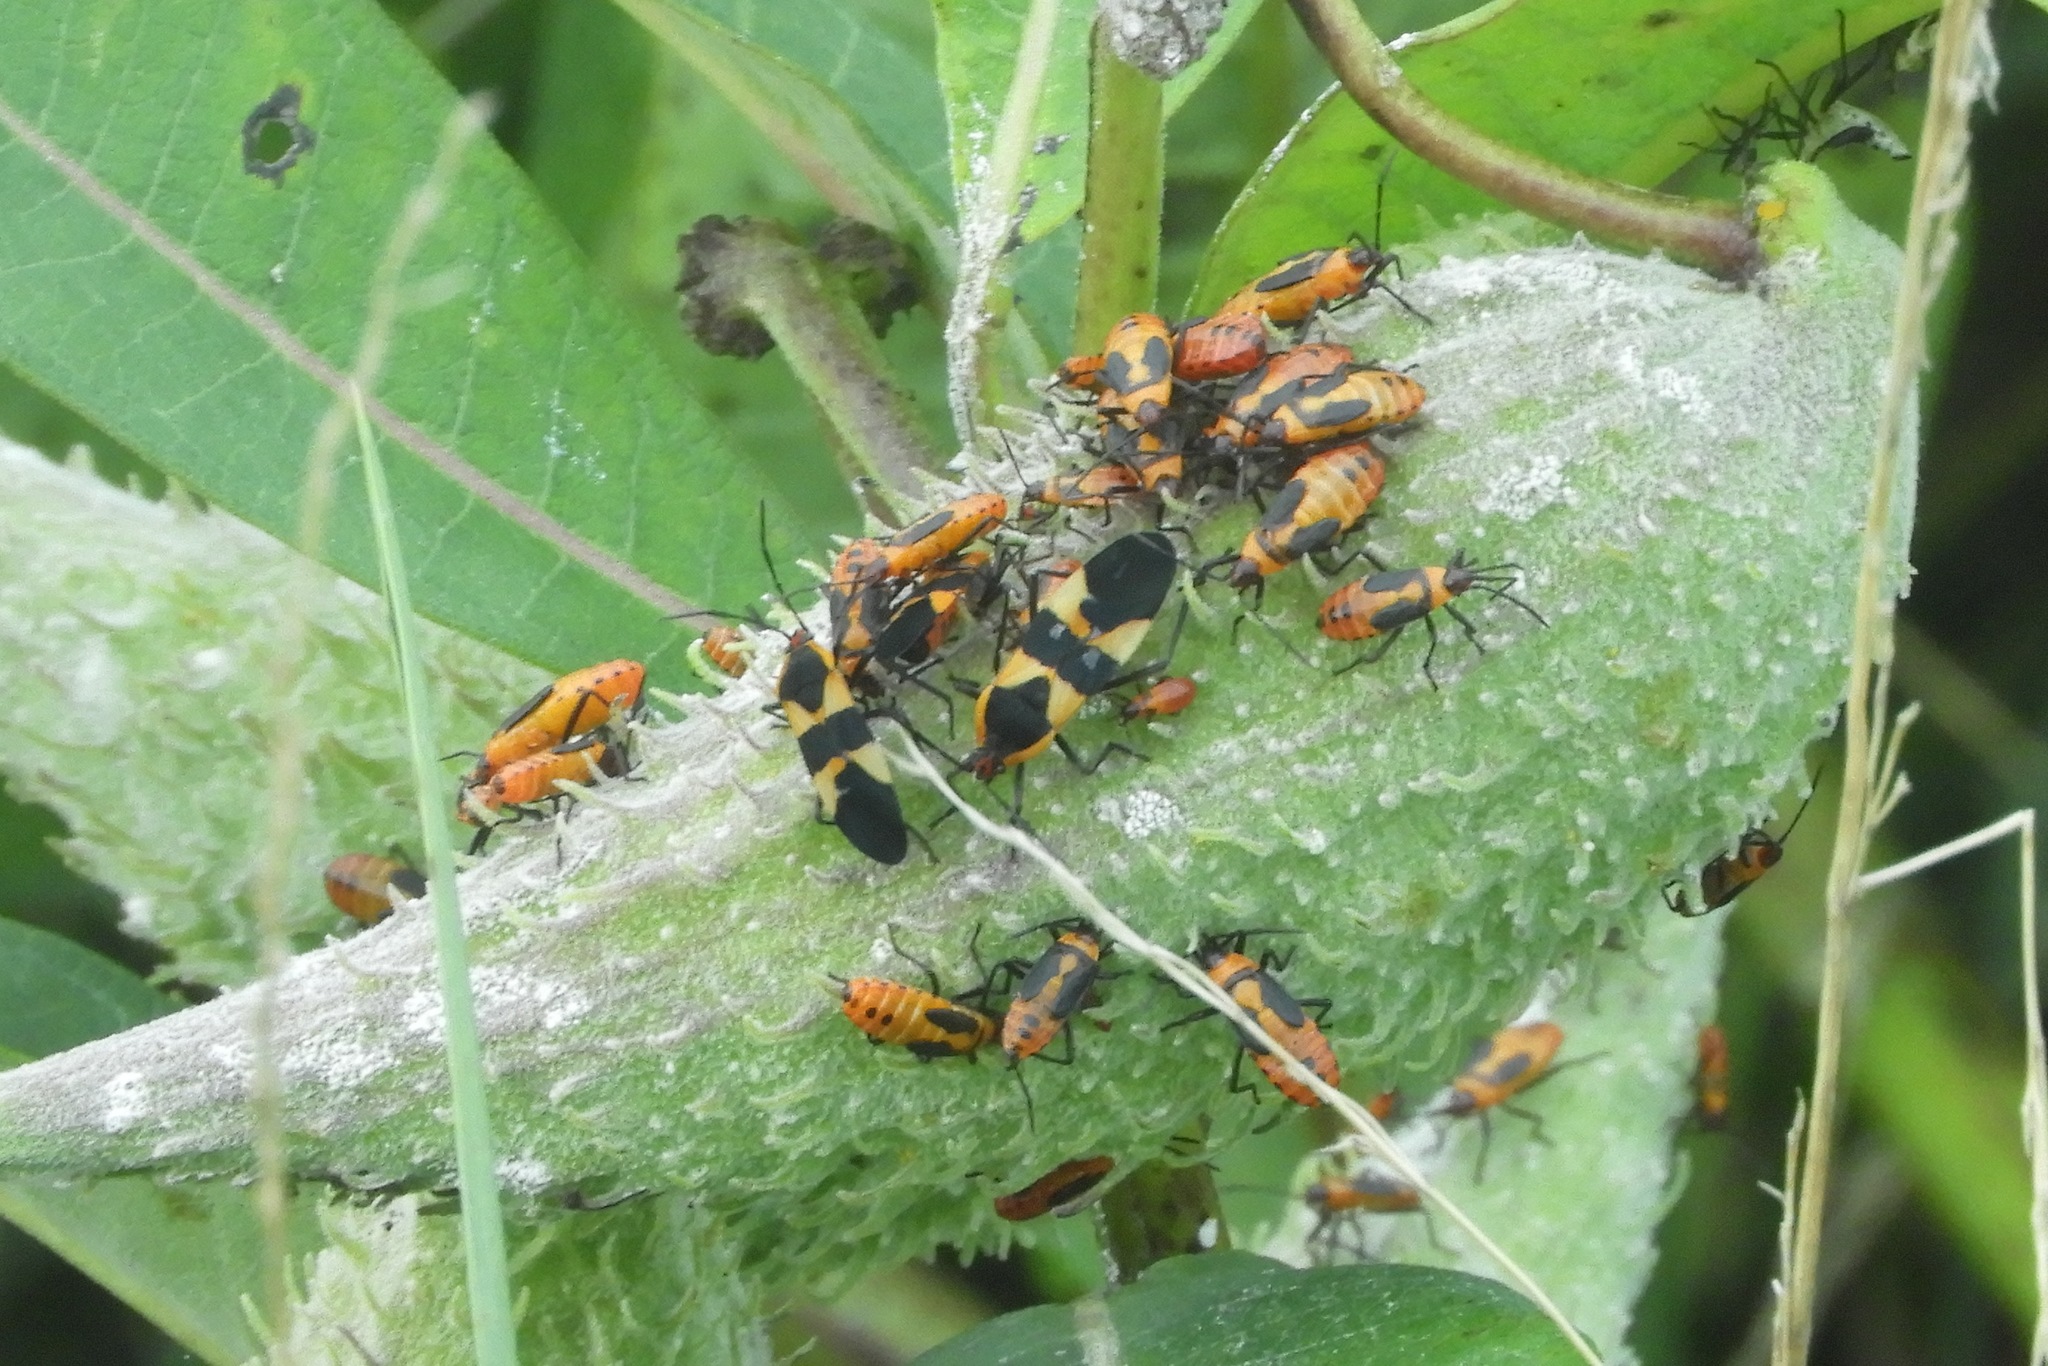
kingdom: Animalia
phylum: Arthropoda
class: Insecta
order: Hemiptera
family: Lygaeidae
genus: Oncopeltus
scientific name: Oncopeltus fasciatus
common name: Large milkweed bug
